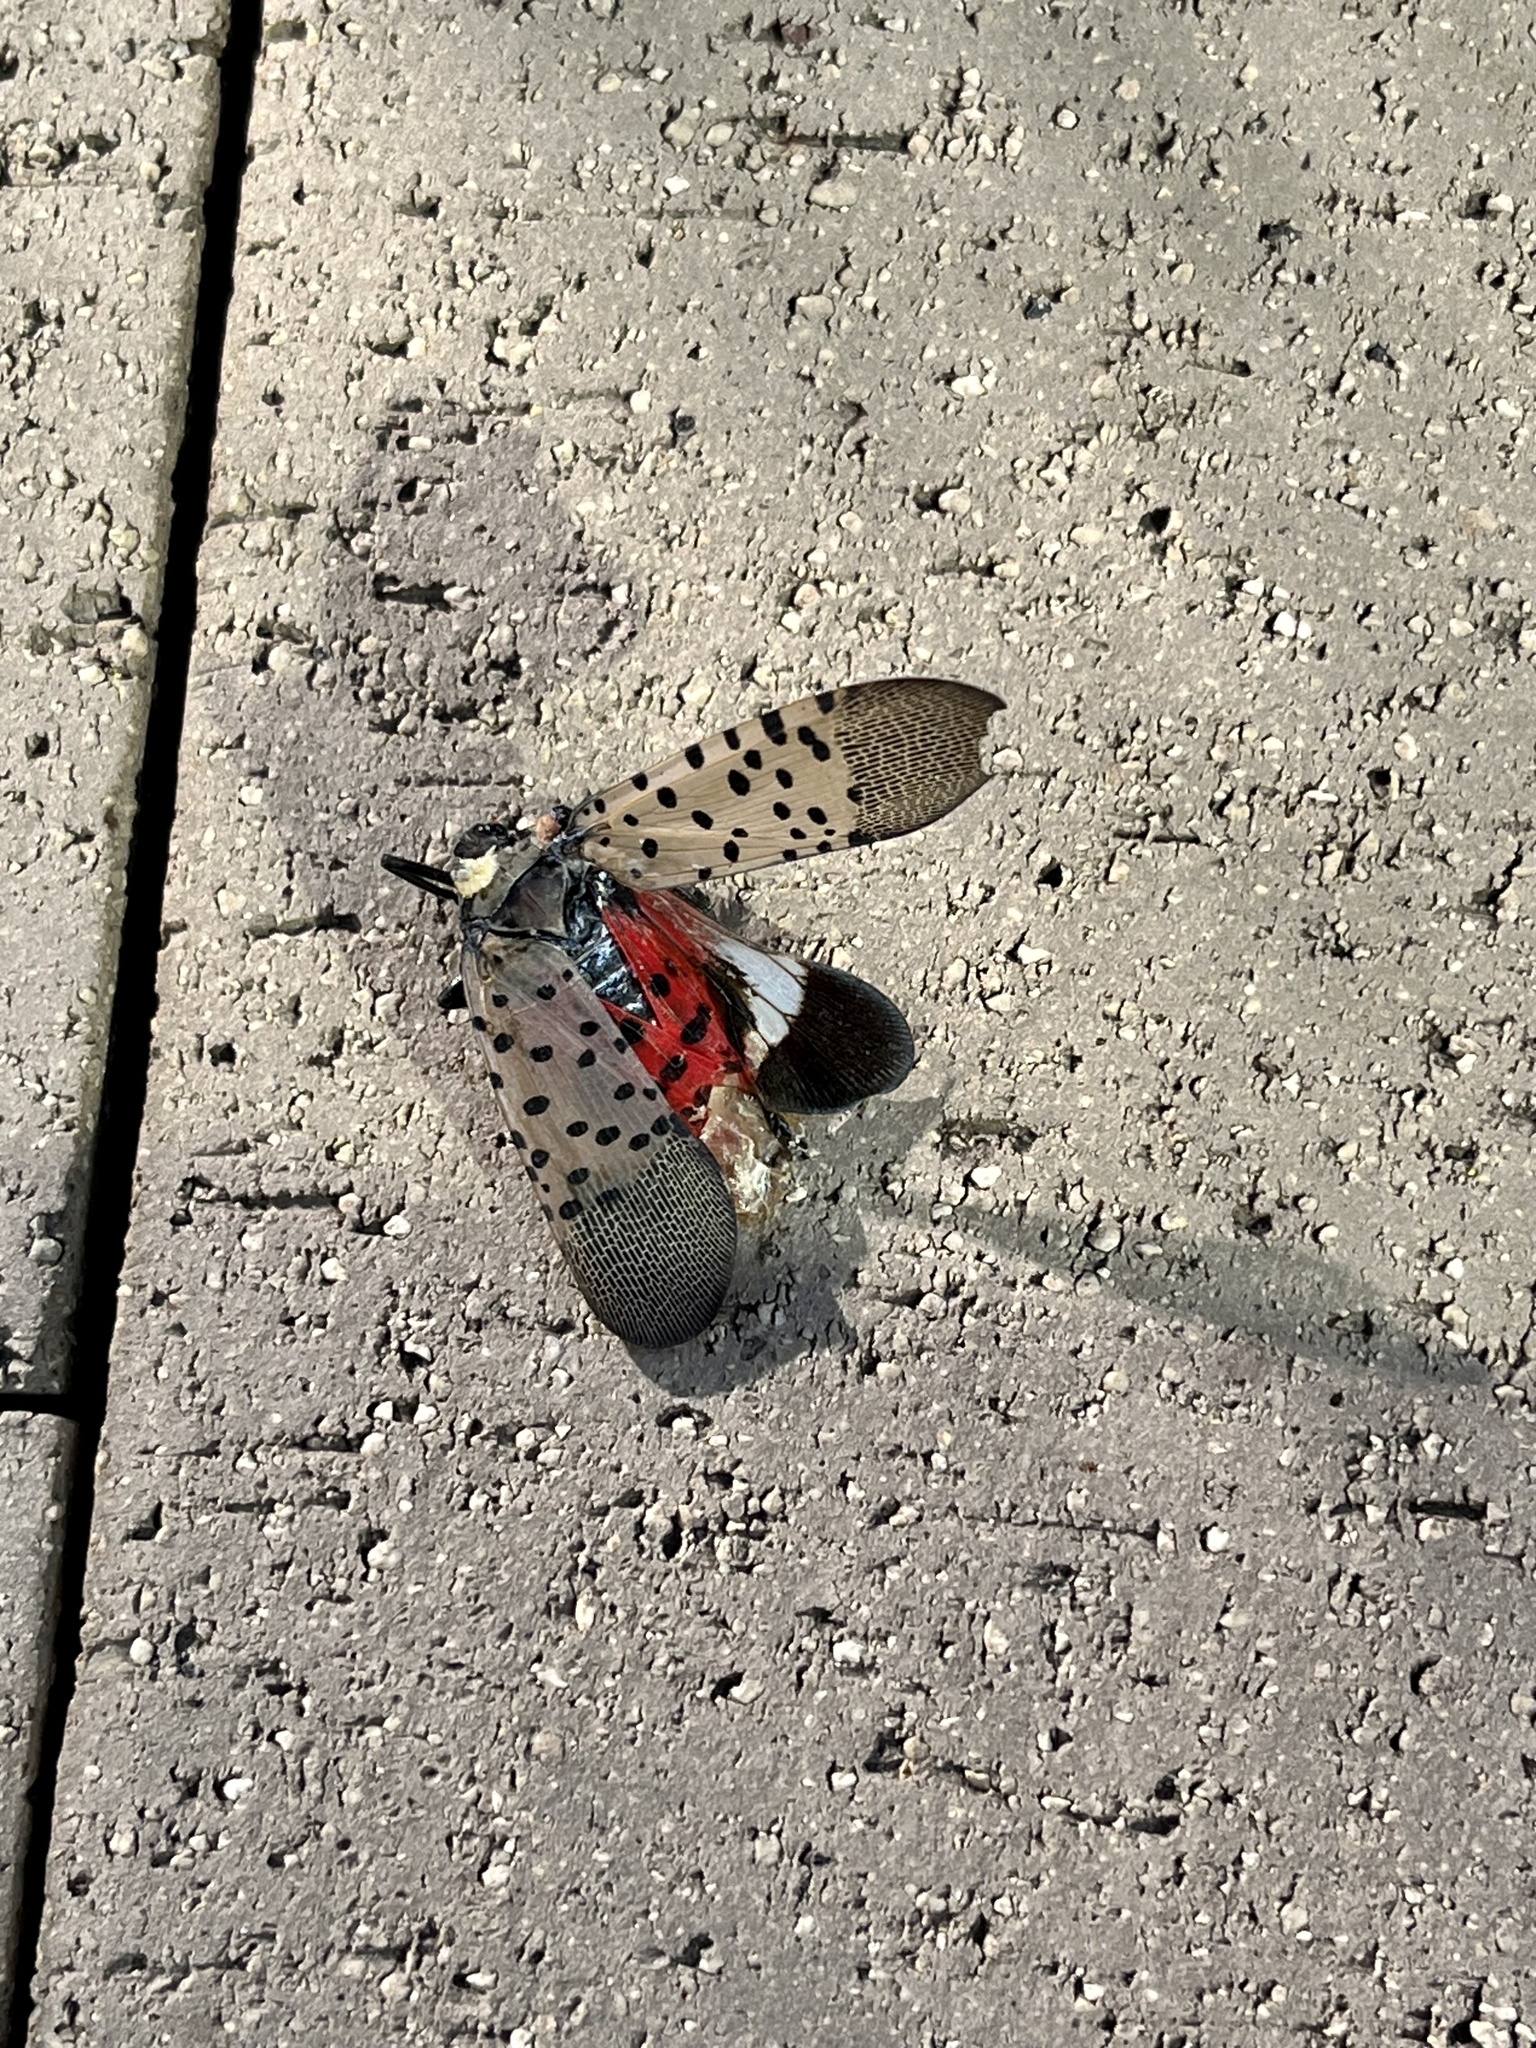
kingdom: Animalia
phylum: Arthropoda
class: Insecta
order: Hemiptera
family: Fulgoridae
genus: Lycorma
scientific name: Lycorma delicatula
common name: Spotted lanternfly
